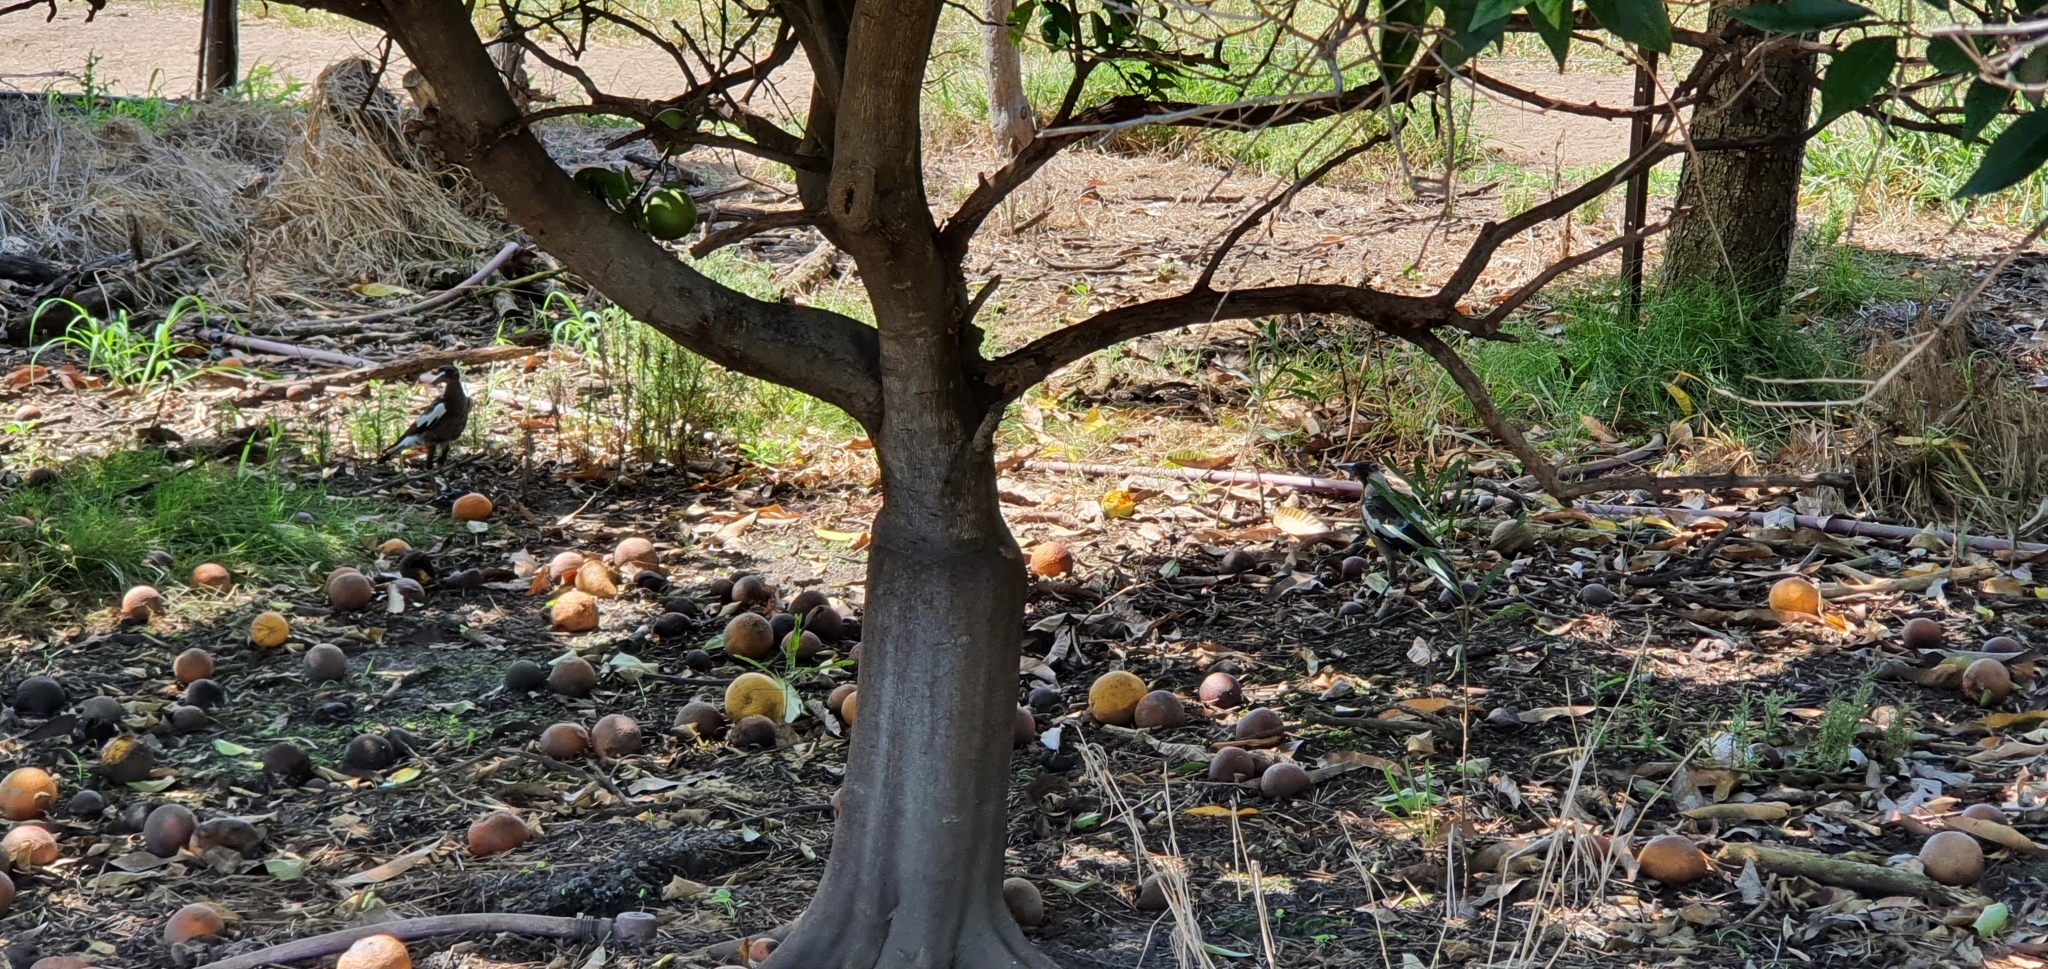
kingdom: Animalia
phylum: Chordata
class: Aves
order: Passeriformes
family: Cracticidae
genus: Gymnorhina
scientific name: Gymnorhina tibicen
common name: Australian magpie
